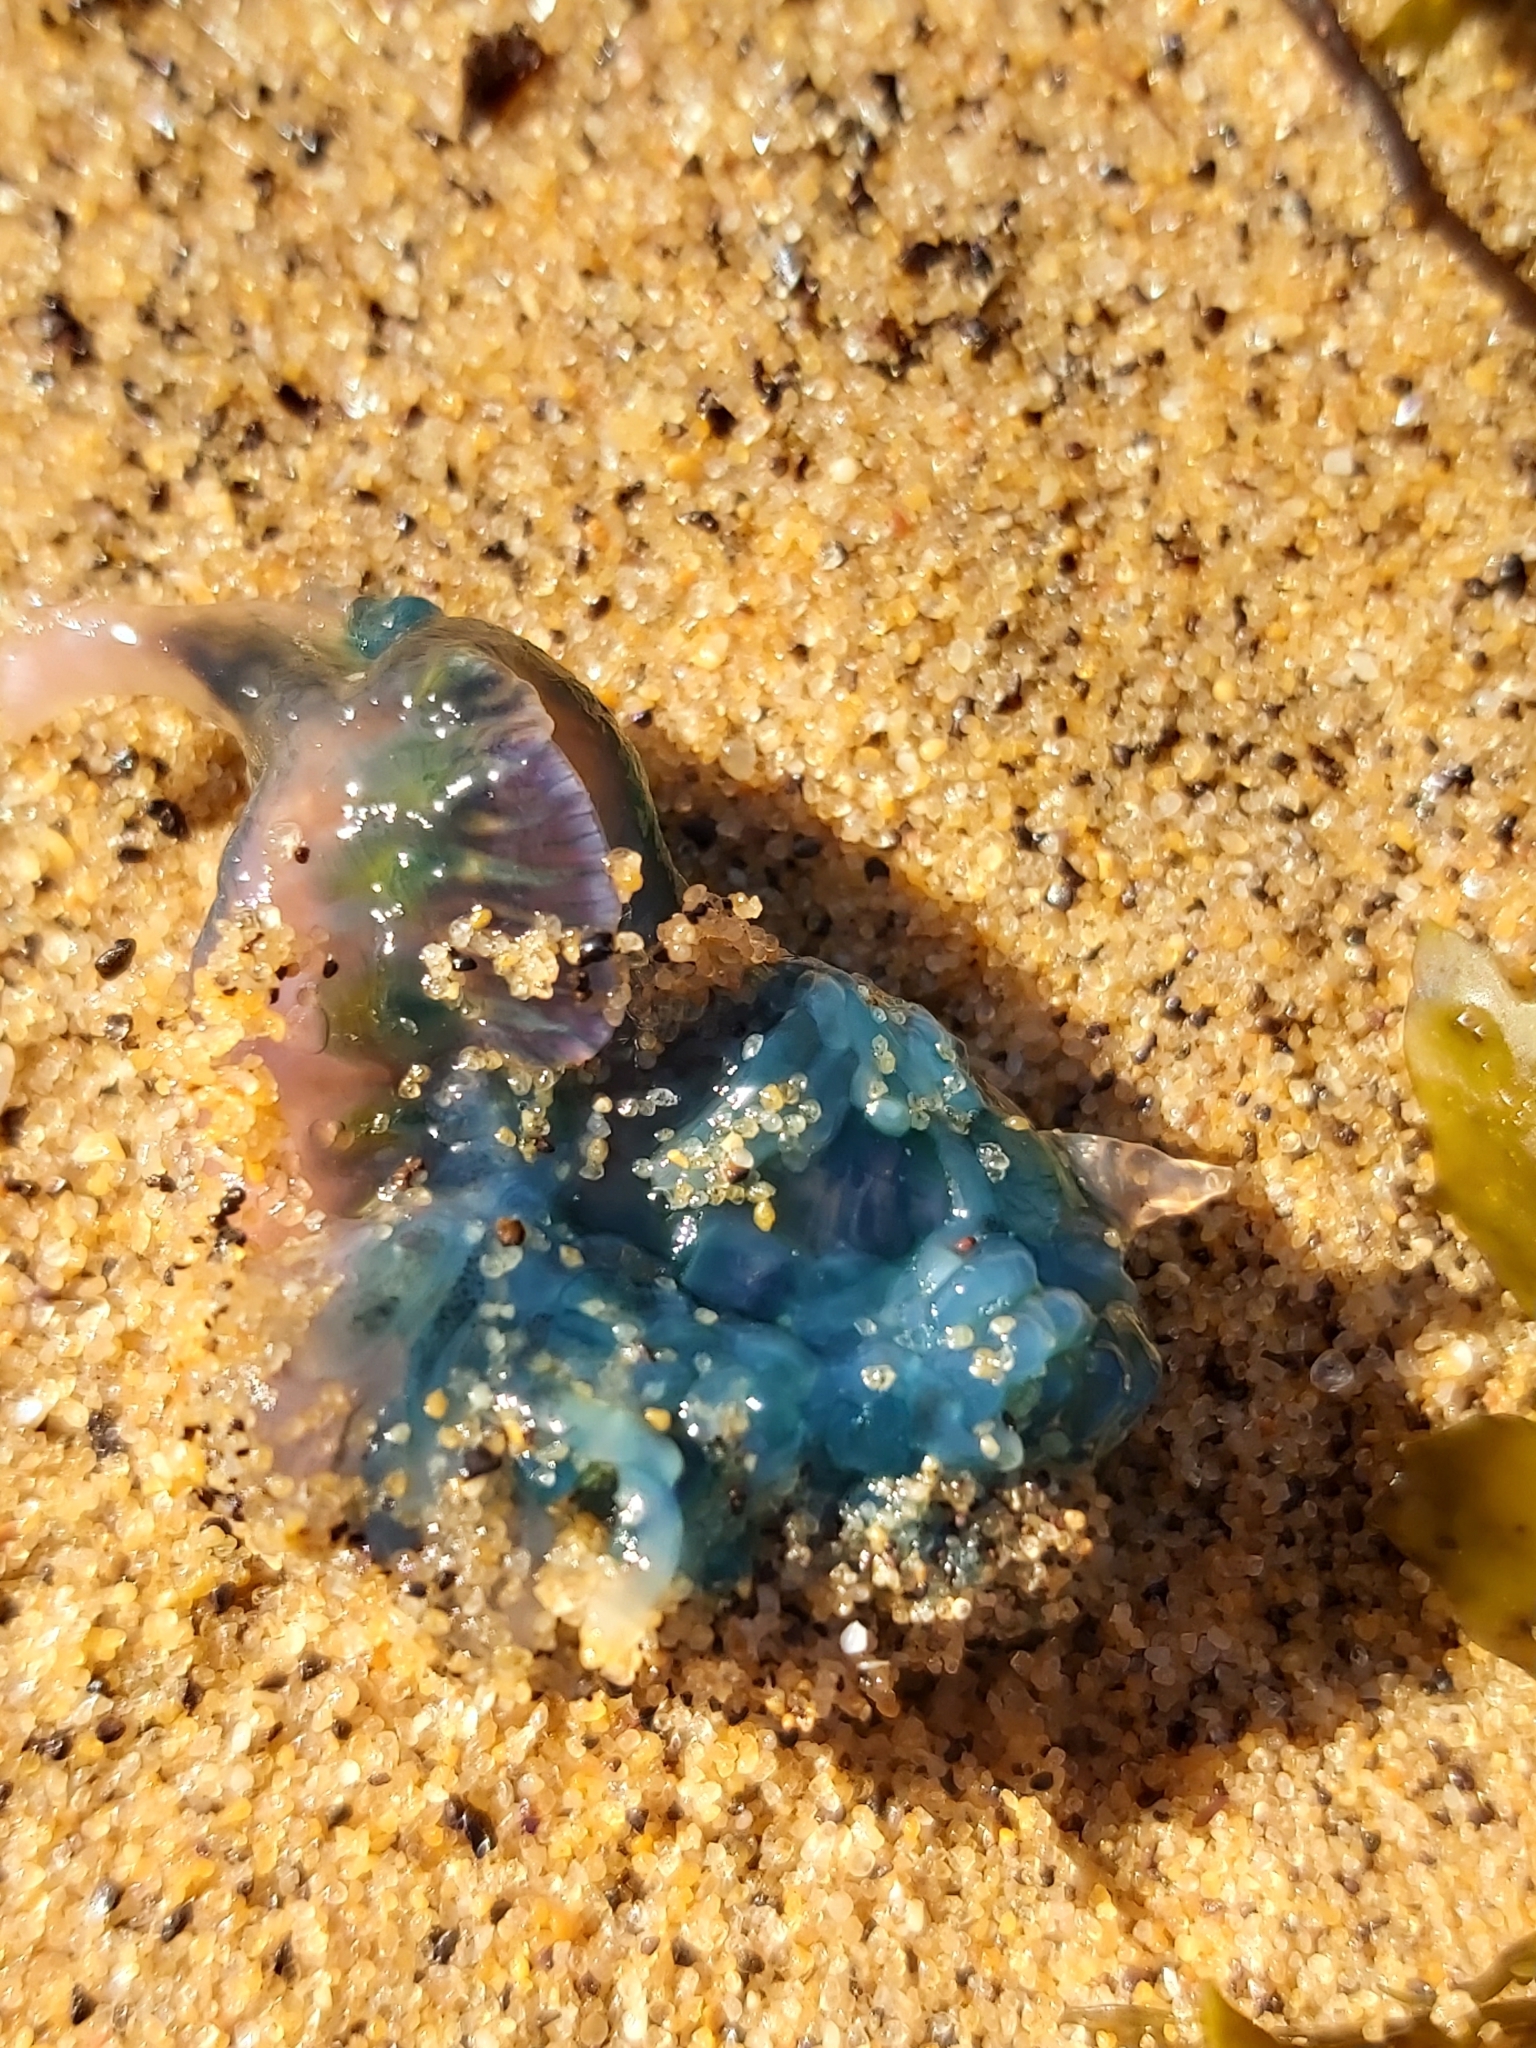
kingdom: Animalia
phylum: Cnidaria
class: Hydrozoa
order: Siphonophorae
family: Physaliidae
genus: Physalia
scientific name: Physalia physalis
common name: Portuguese man-of-war
